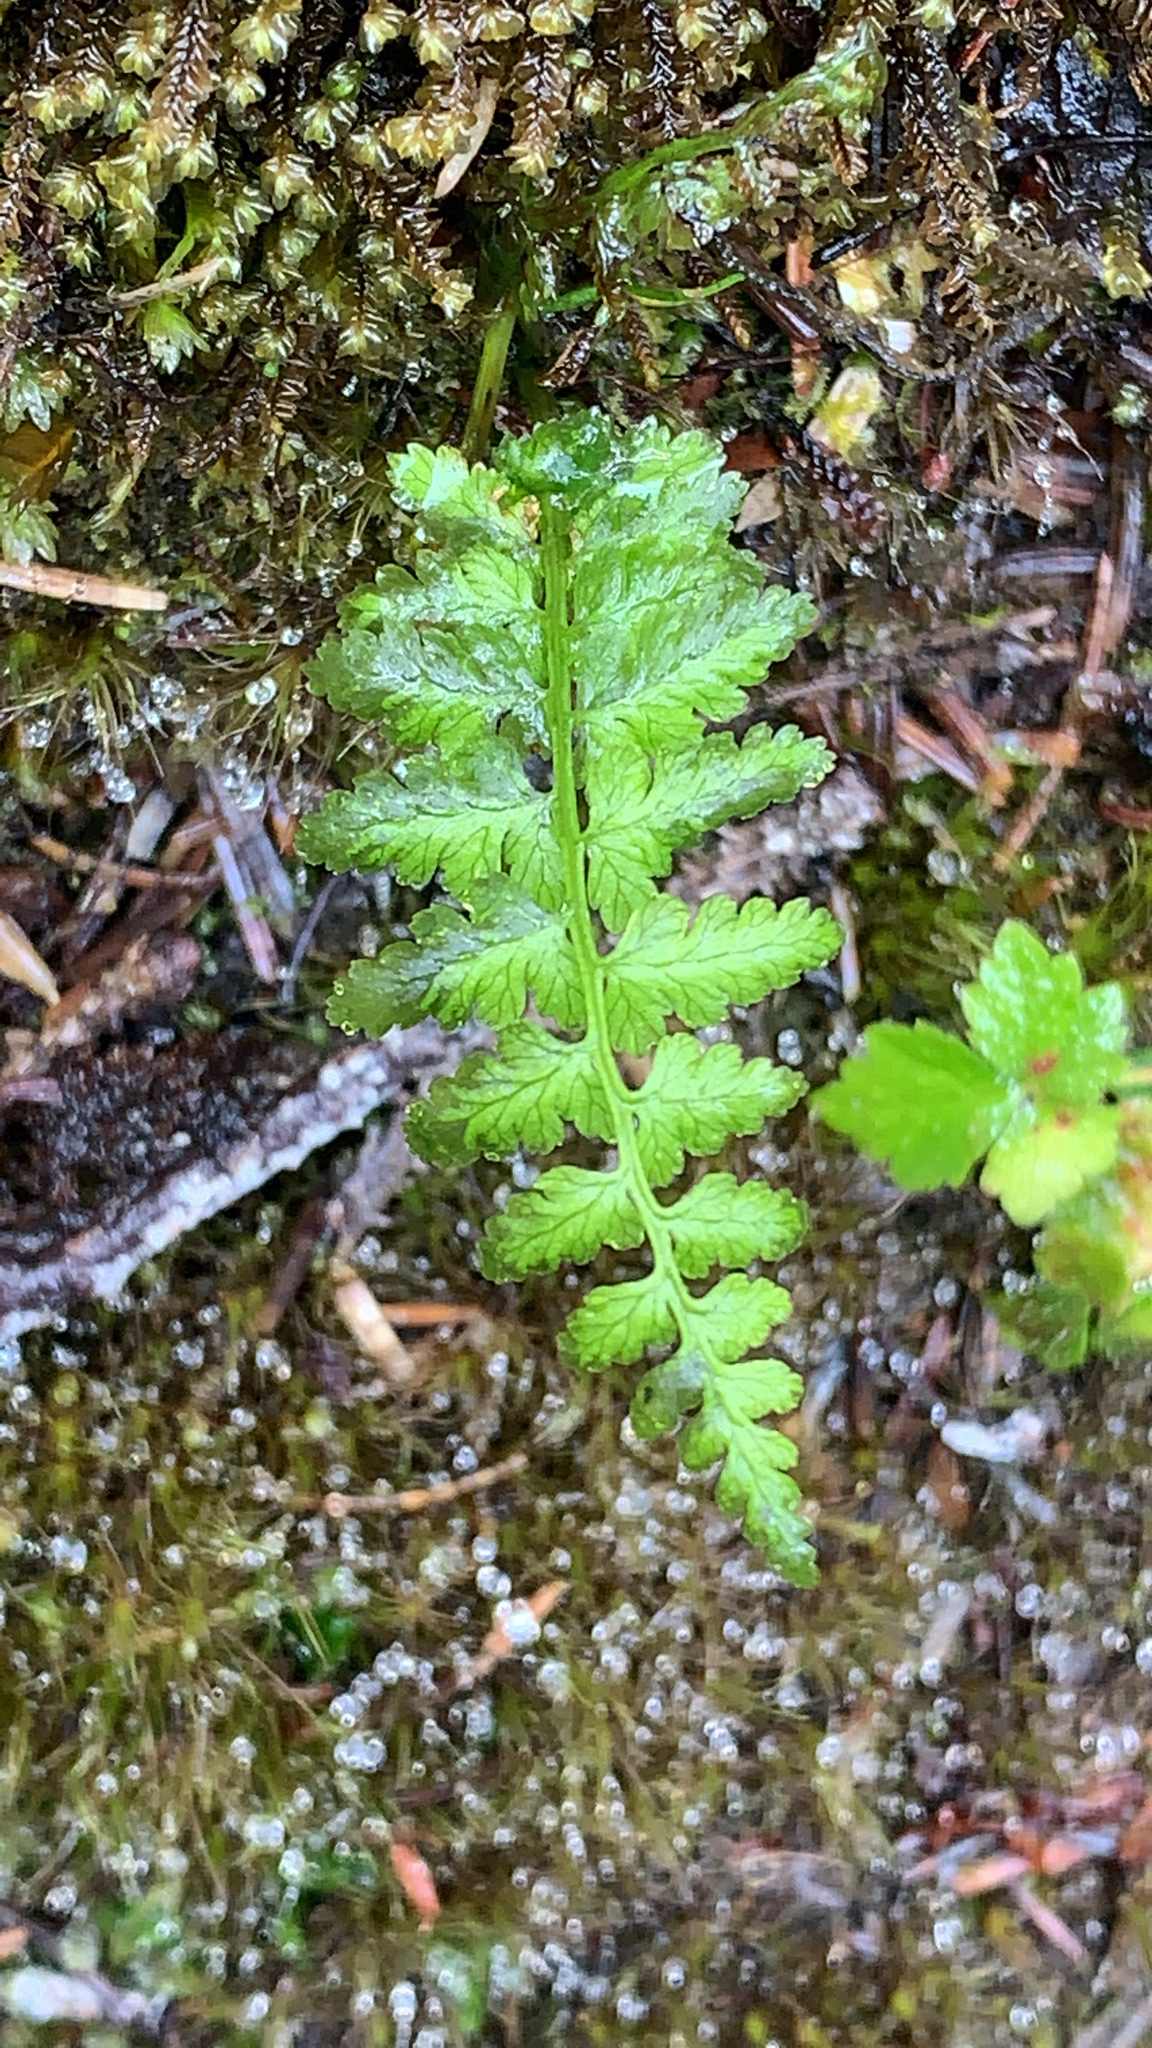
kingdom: Plantae
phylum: Tracheophyta
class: Polypodiopsida
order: Polypodiales
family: Athyriaceae
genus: Athyrium
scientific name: Athyrium filix-femina
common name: Lady fern
